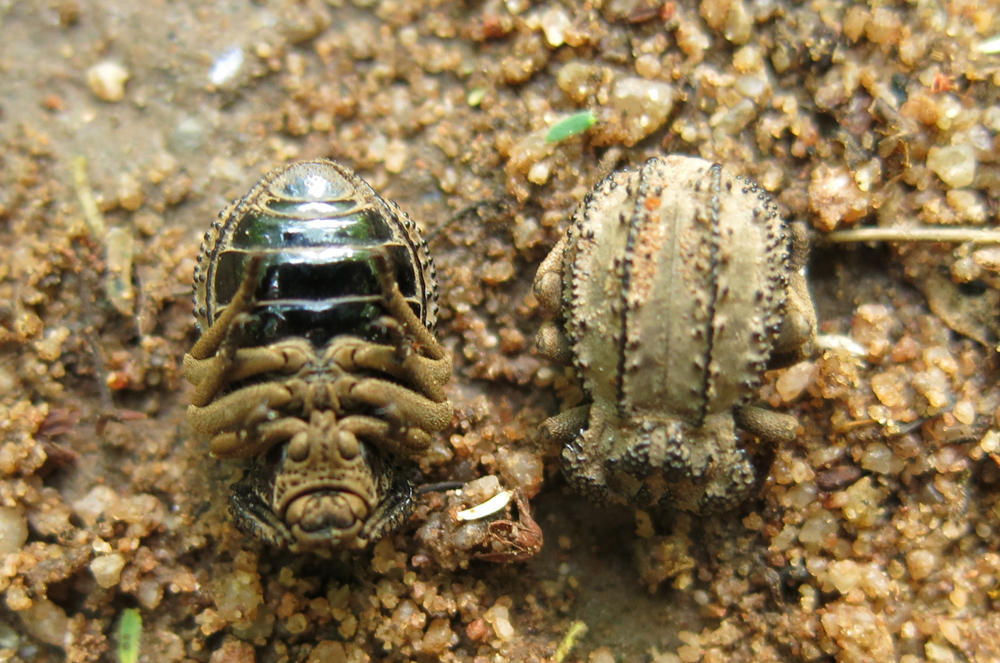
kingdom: Animalia
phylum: Arthropoda
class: Insecta
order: Coleoptera
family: Tenebrionidae
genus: Amachla
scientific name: Amachla
